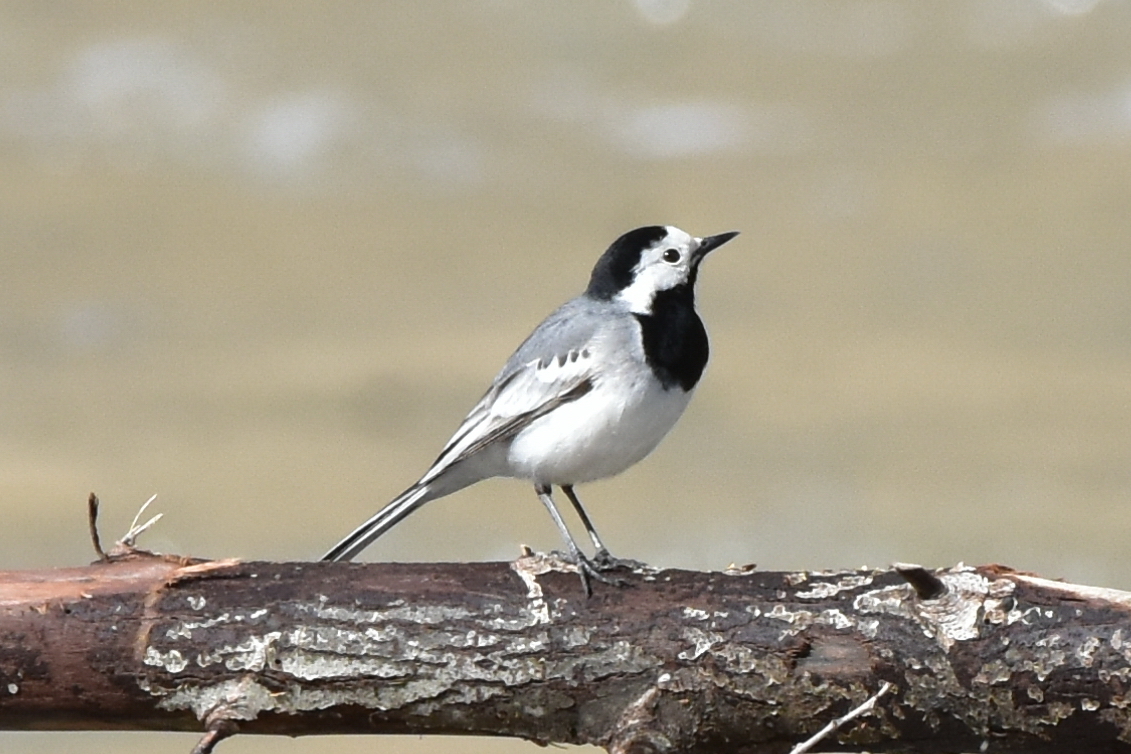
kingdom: Animalia
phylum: Chordata
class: Aves
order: Passeriformes
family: Motacillidae
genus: Motacilla
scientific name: Motacilla alba
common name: White wagtail
